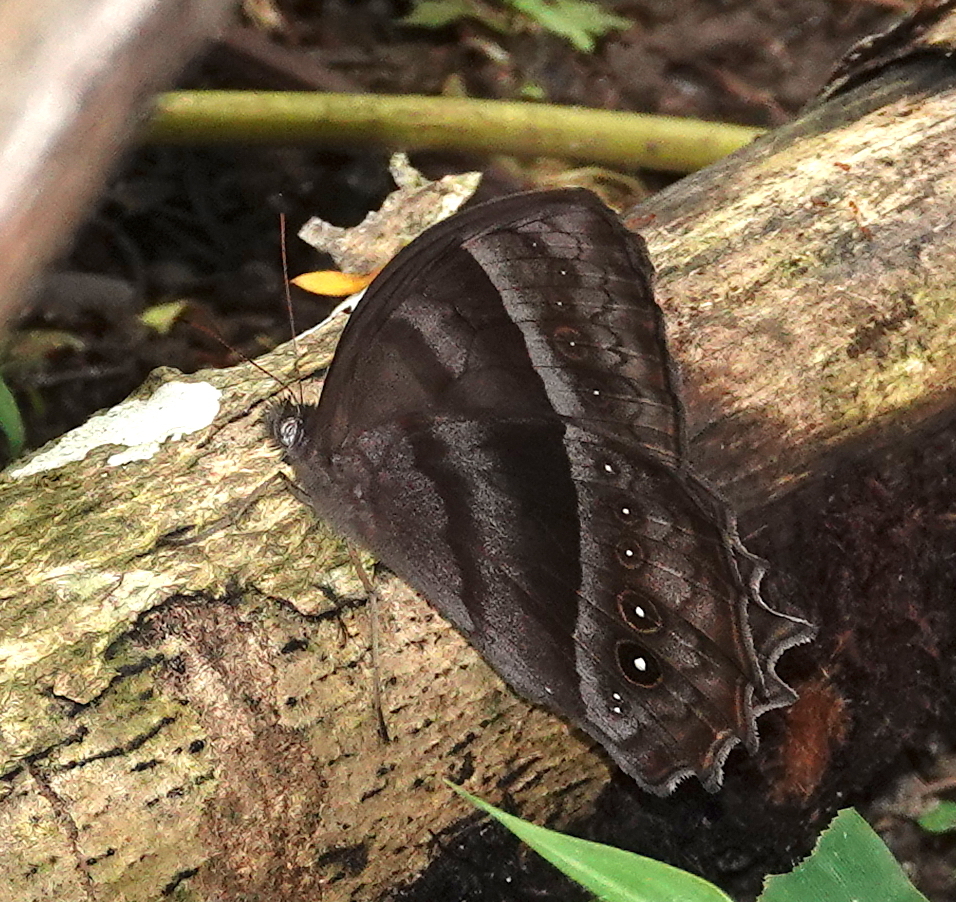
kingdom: Animalia
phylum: Arthropoda
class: Insecta
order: Lepidoptera
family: Nymphalidae
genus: Taygetis
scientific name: Taygetis thamyra
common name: Thamyra satyr
